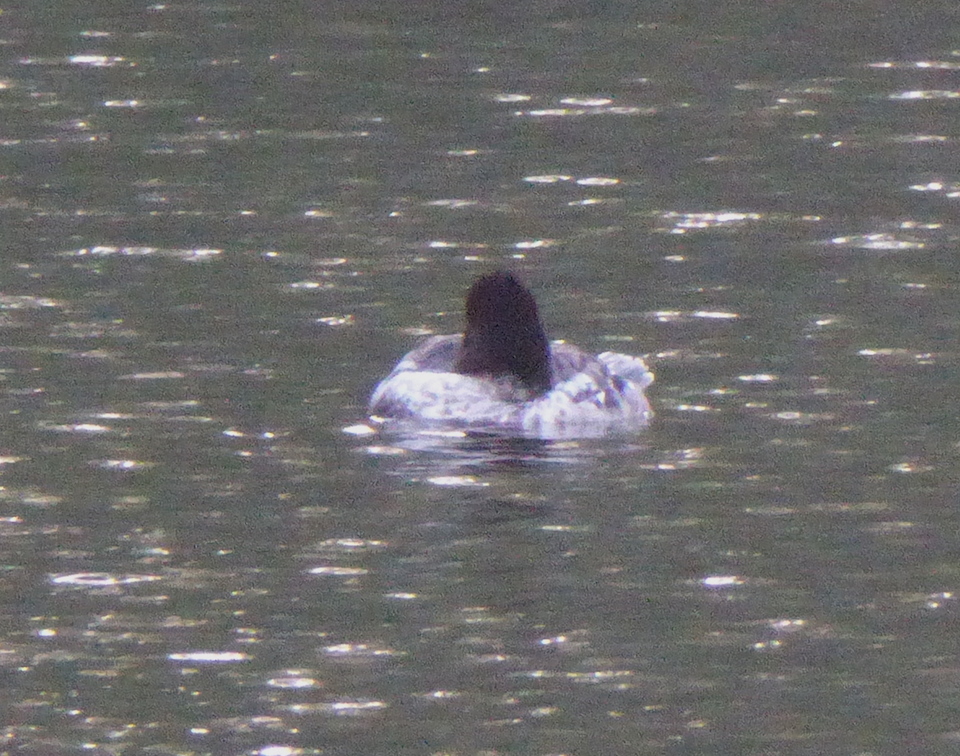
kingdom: Animalia
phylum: Chordata
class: Aves
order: Anseriformes
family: Anatidae
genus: Bucephala
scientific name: Bucephala clangula
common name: Common goldeneye
